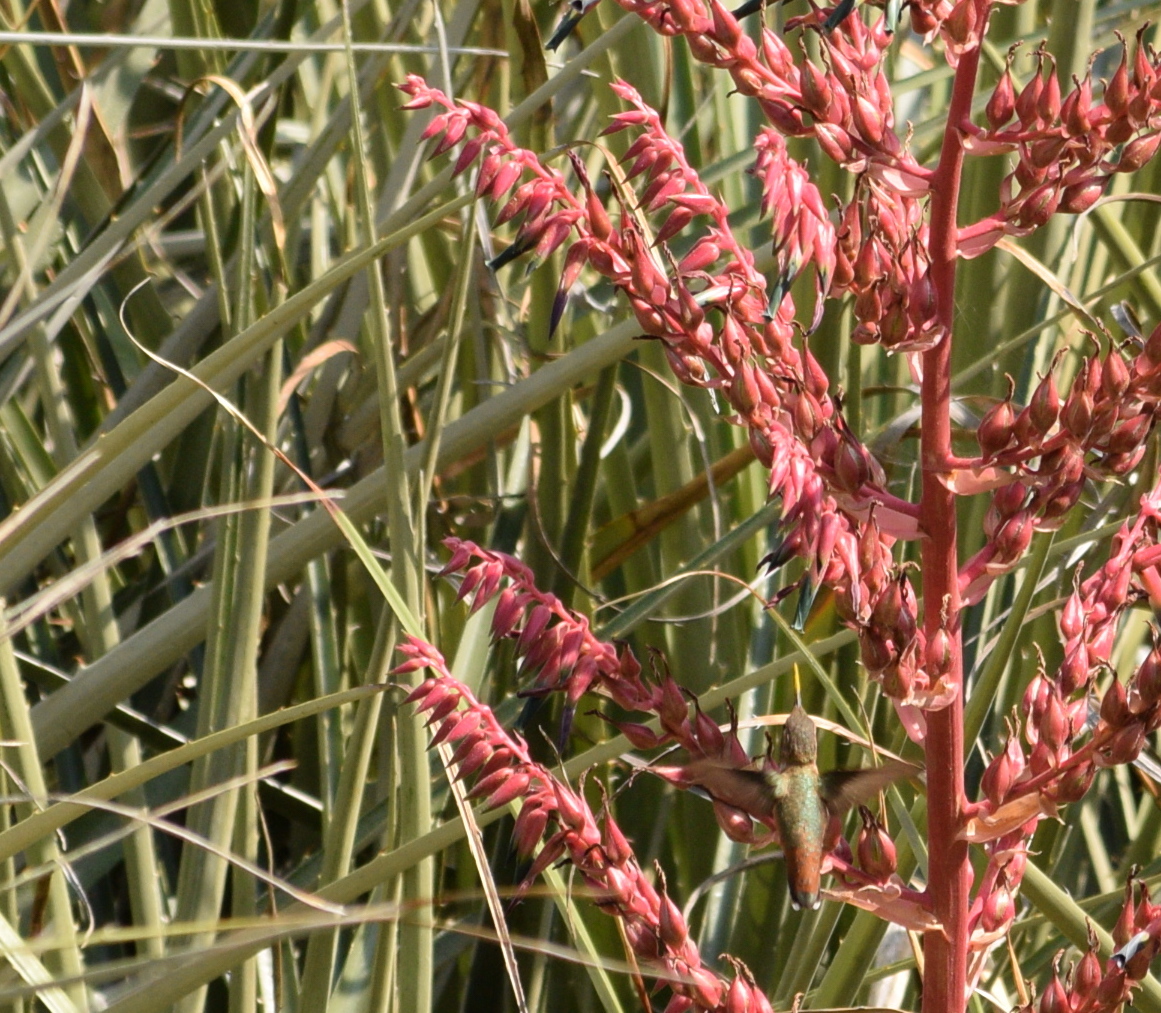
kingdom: Animalia
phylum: Chordata
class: Aves
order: Apodiformes
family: Trochilidae
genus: Selasphorus
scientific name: Selasphorus
